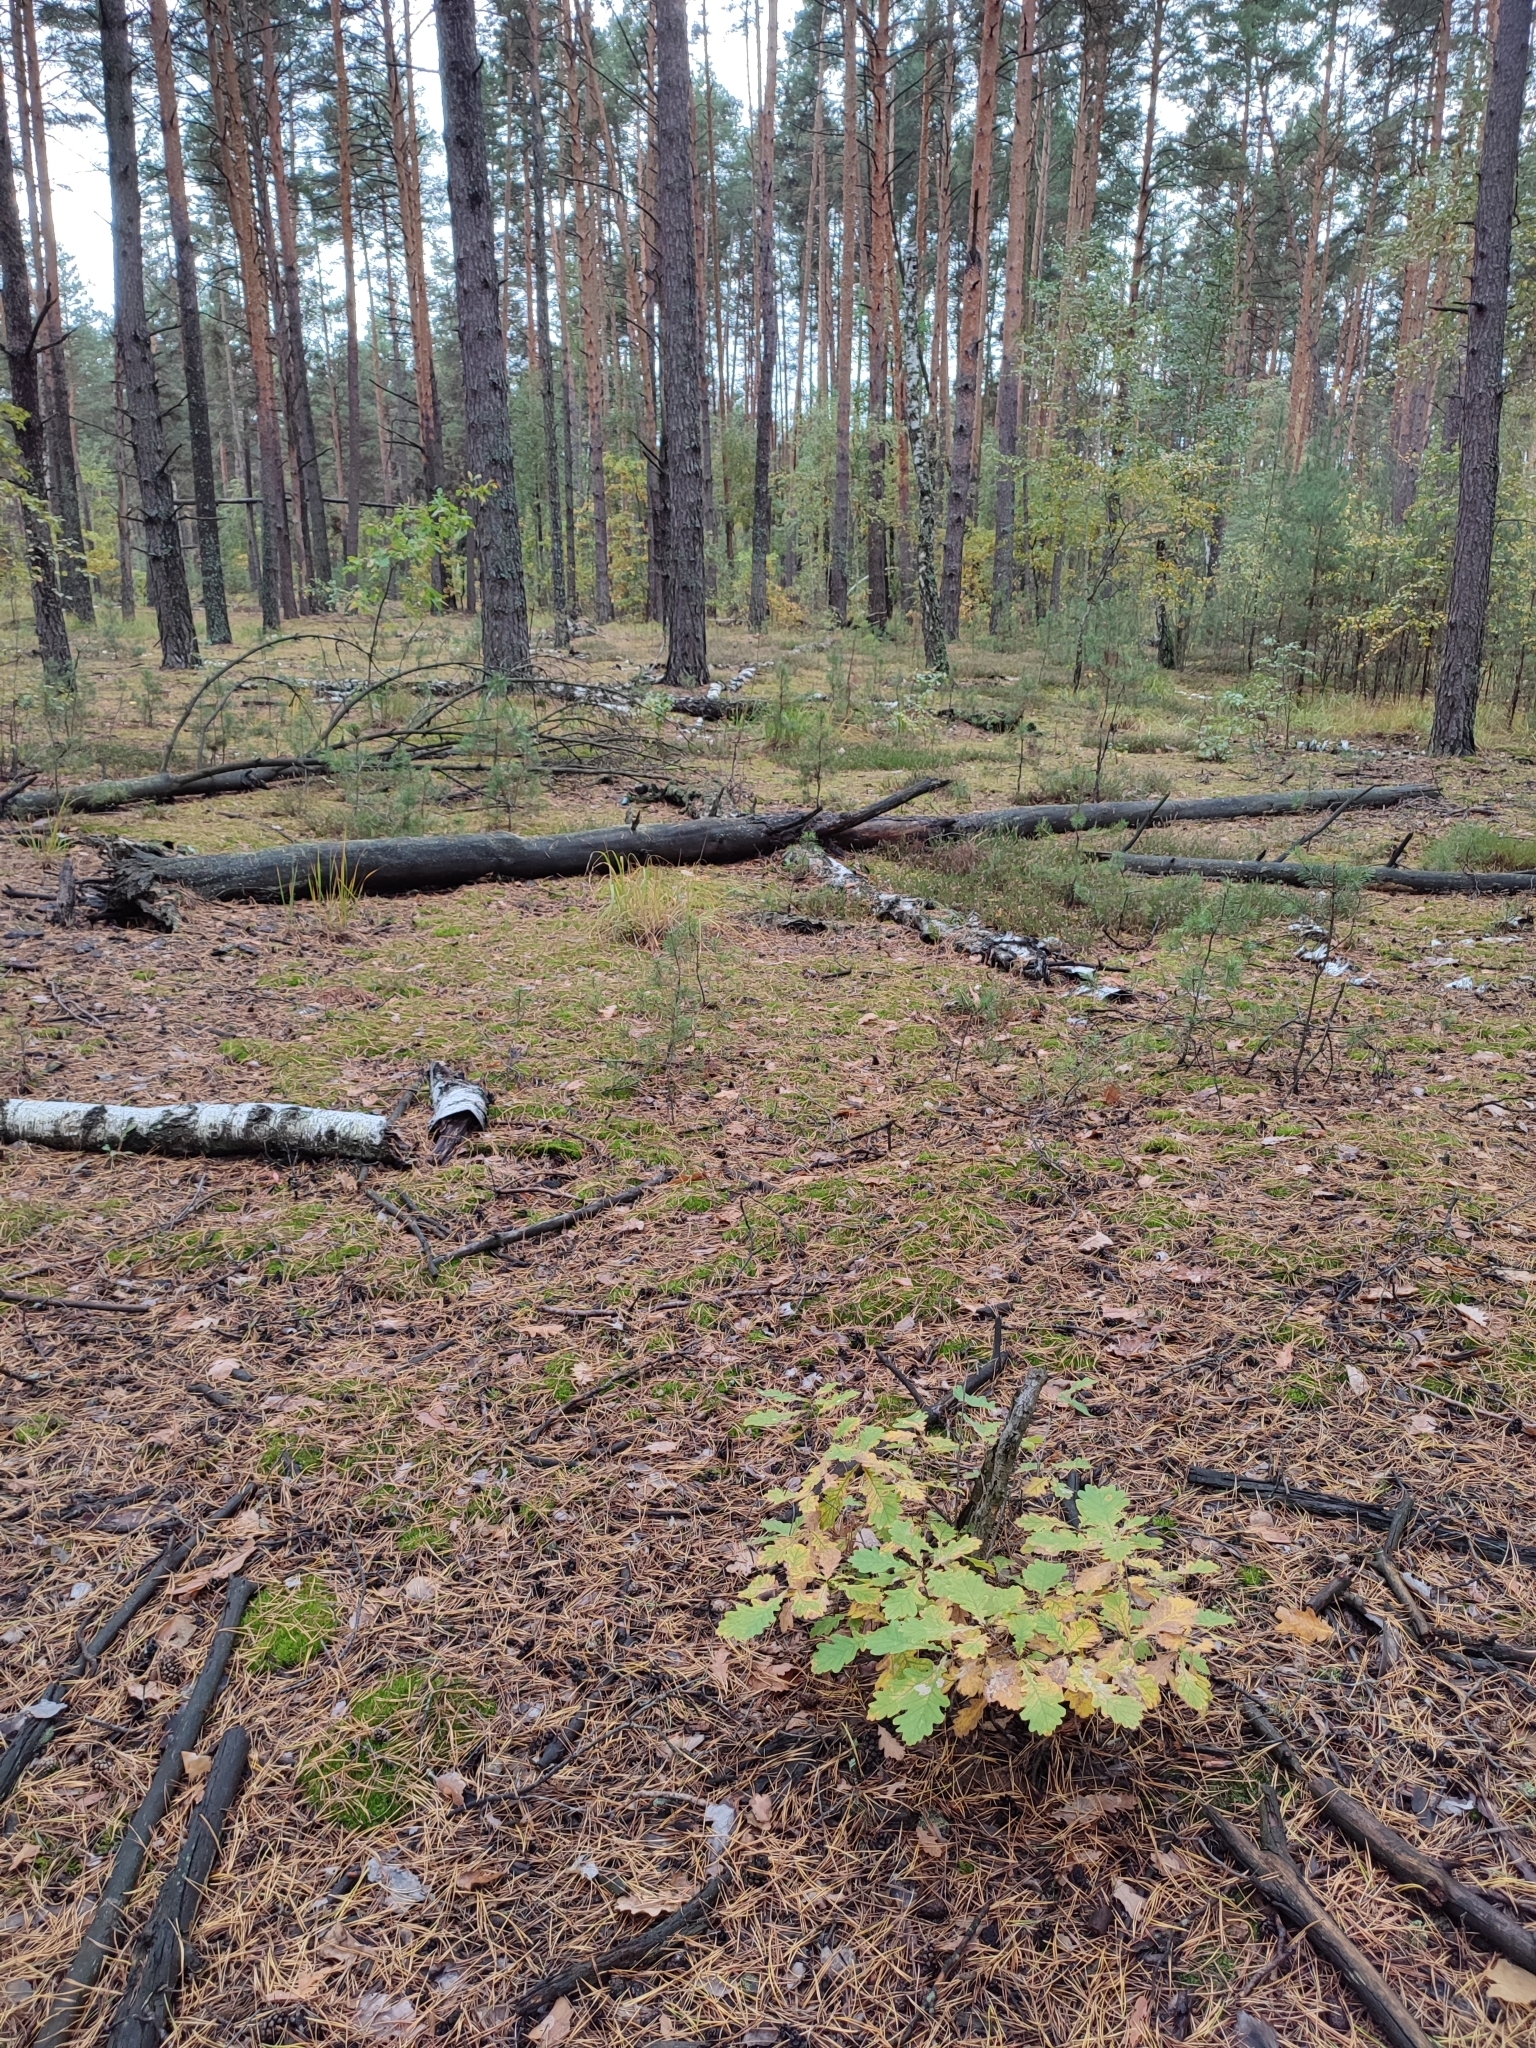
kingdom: Plantae
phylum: Tracheophyta
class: Magnoliopsida
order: Fagales
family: Fagaceae
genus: Quercus
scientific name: Quercus robur
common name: Pedunculate oak
